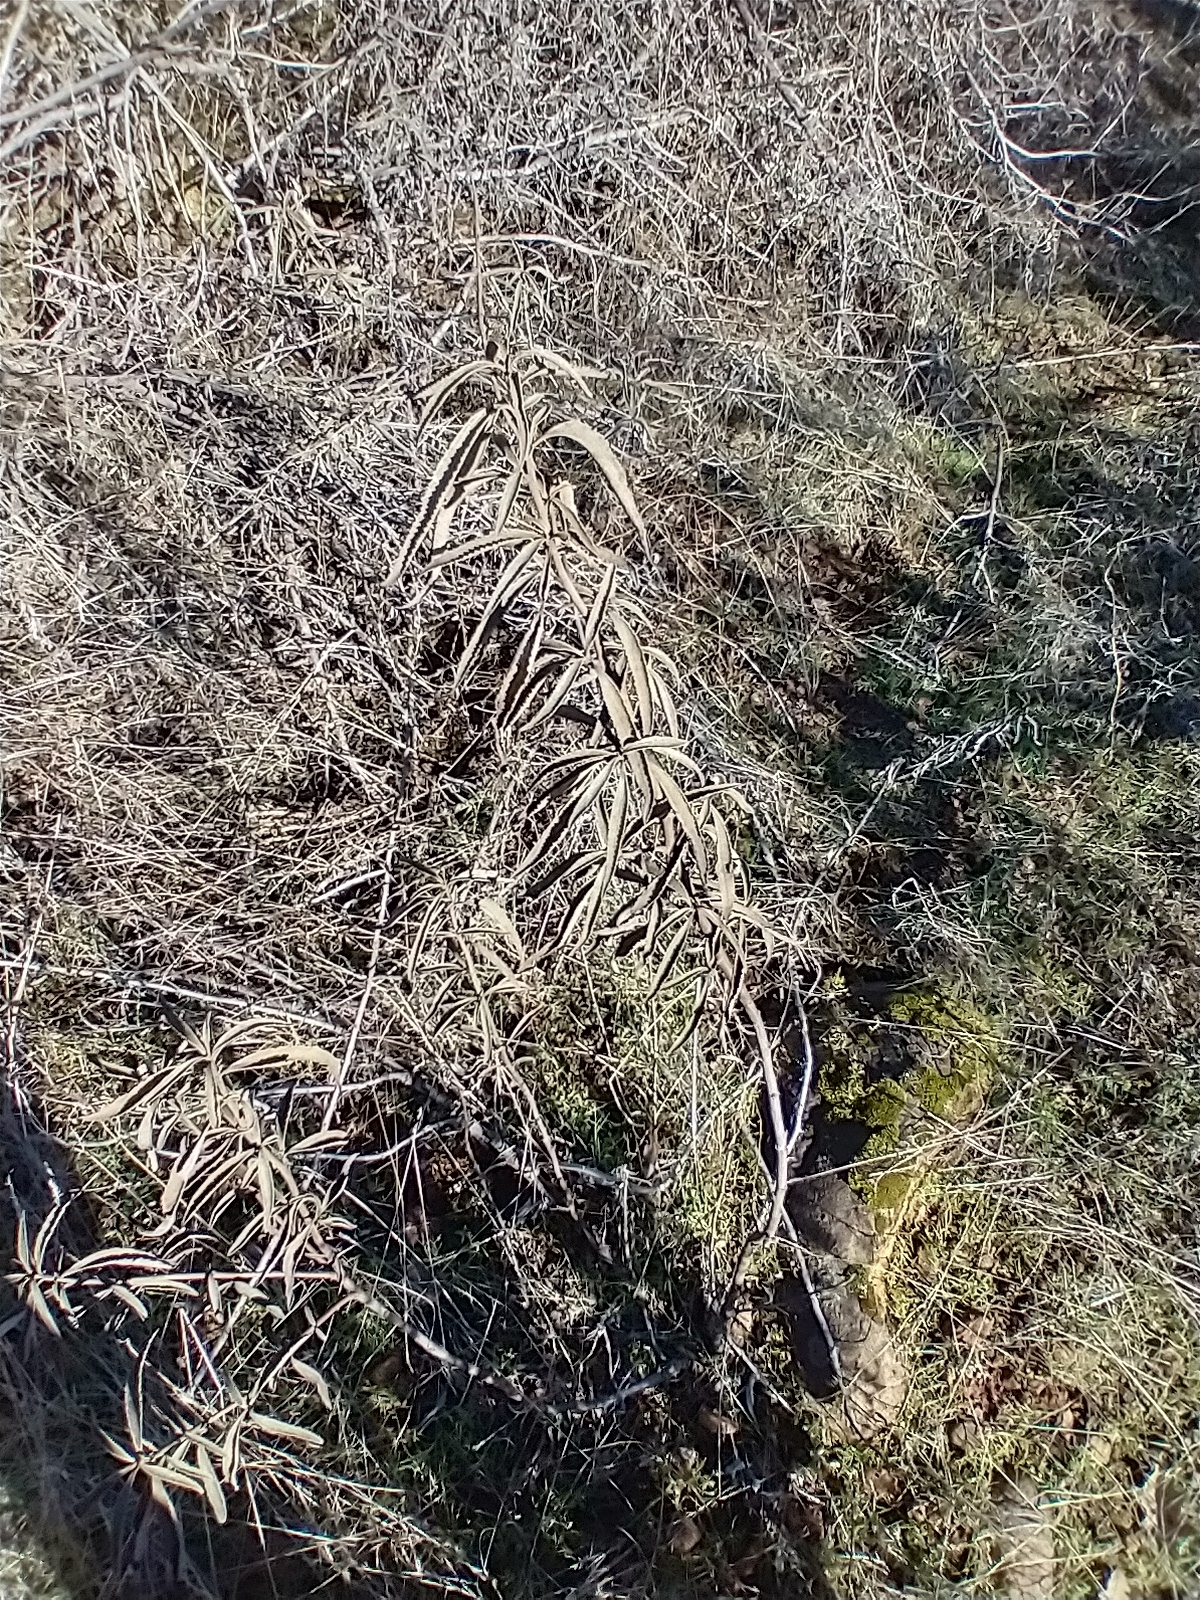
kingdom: Plantae
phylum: Tracheophyta
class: Magnoliopsida
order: Boraginales
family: Namaceae
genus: Eriodictyon
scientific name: Eriodictyon californicum
